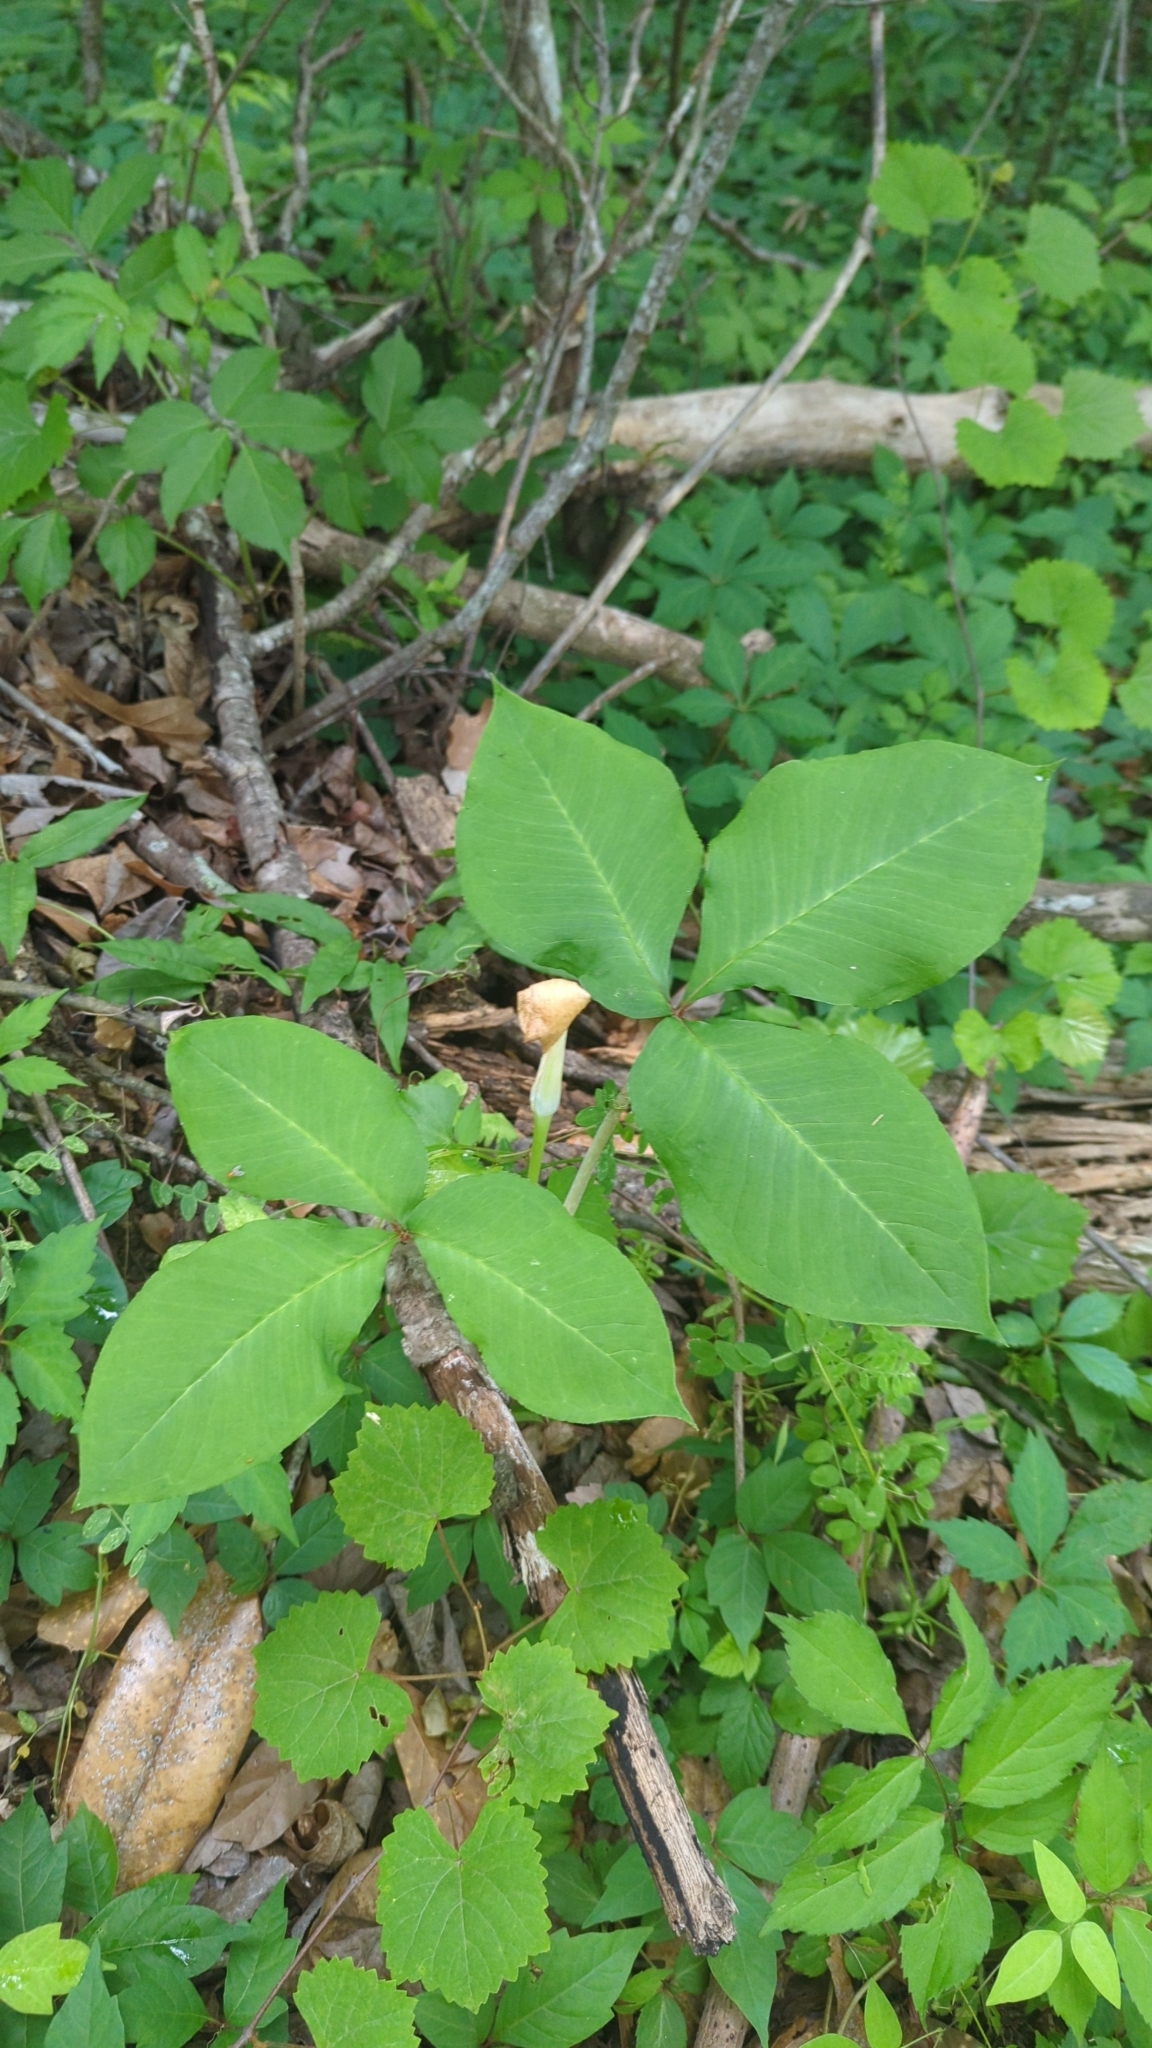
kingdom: Plantae
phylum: Tracheophyta
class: Liliopsida
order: Alismatales
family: Araceae
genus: Arisaema
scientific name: Arisaema triphyllum
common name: Jack-in-the-pulpit
